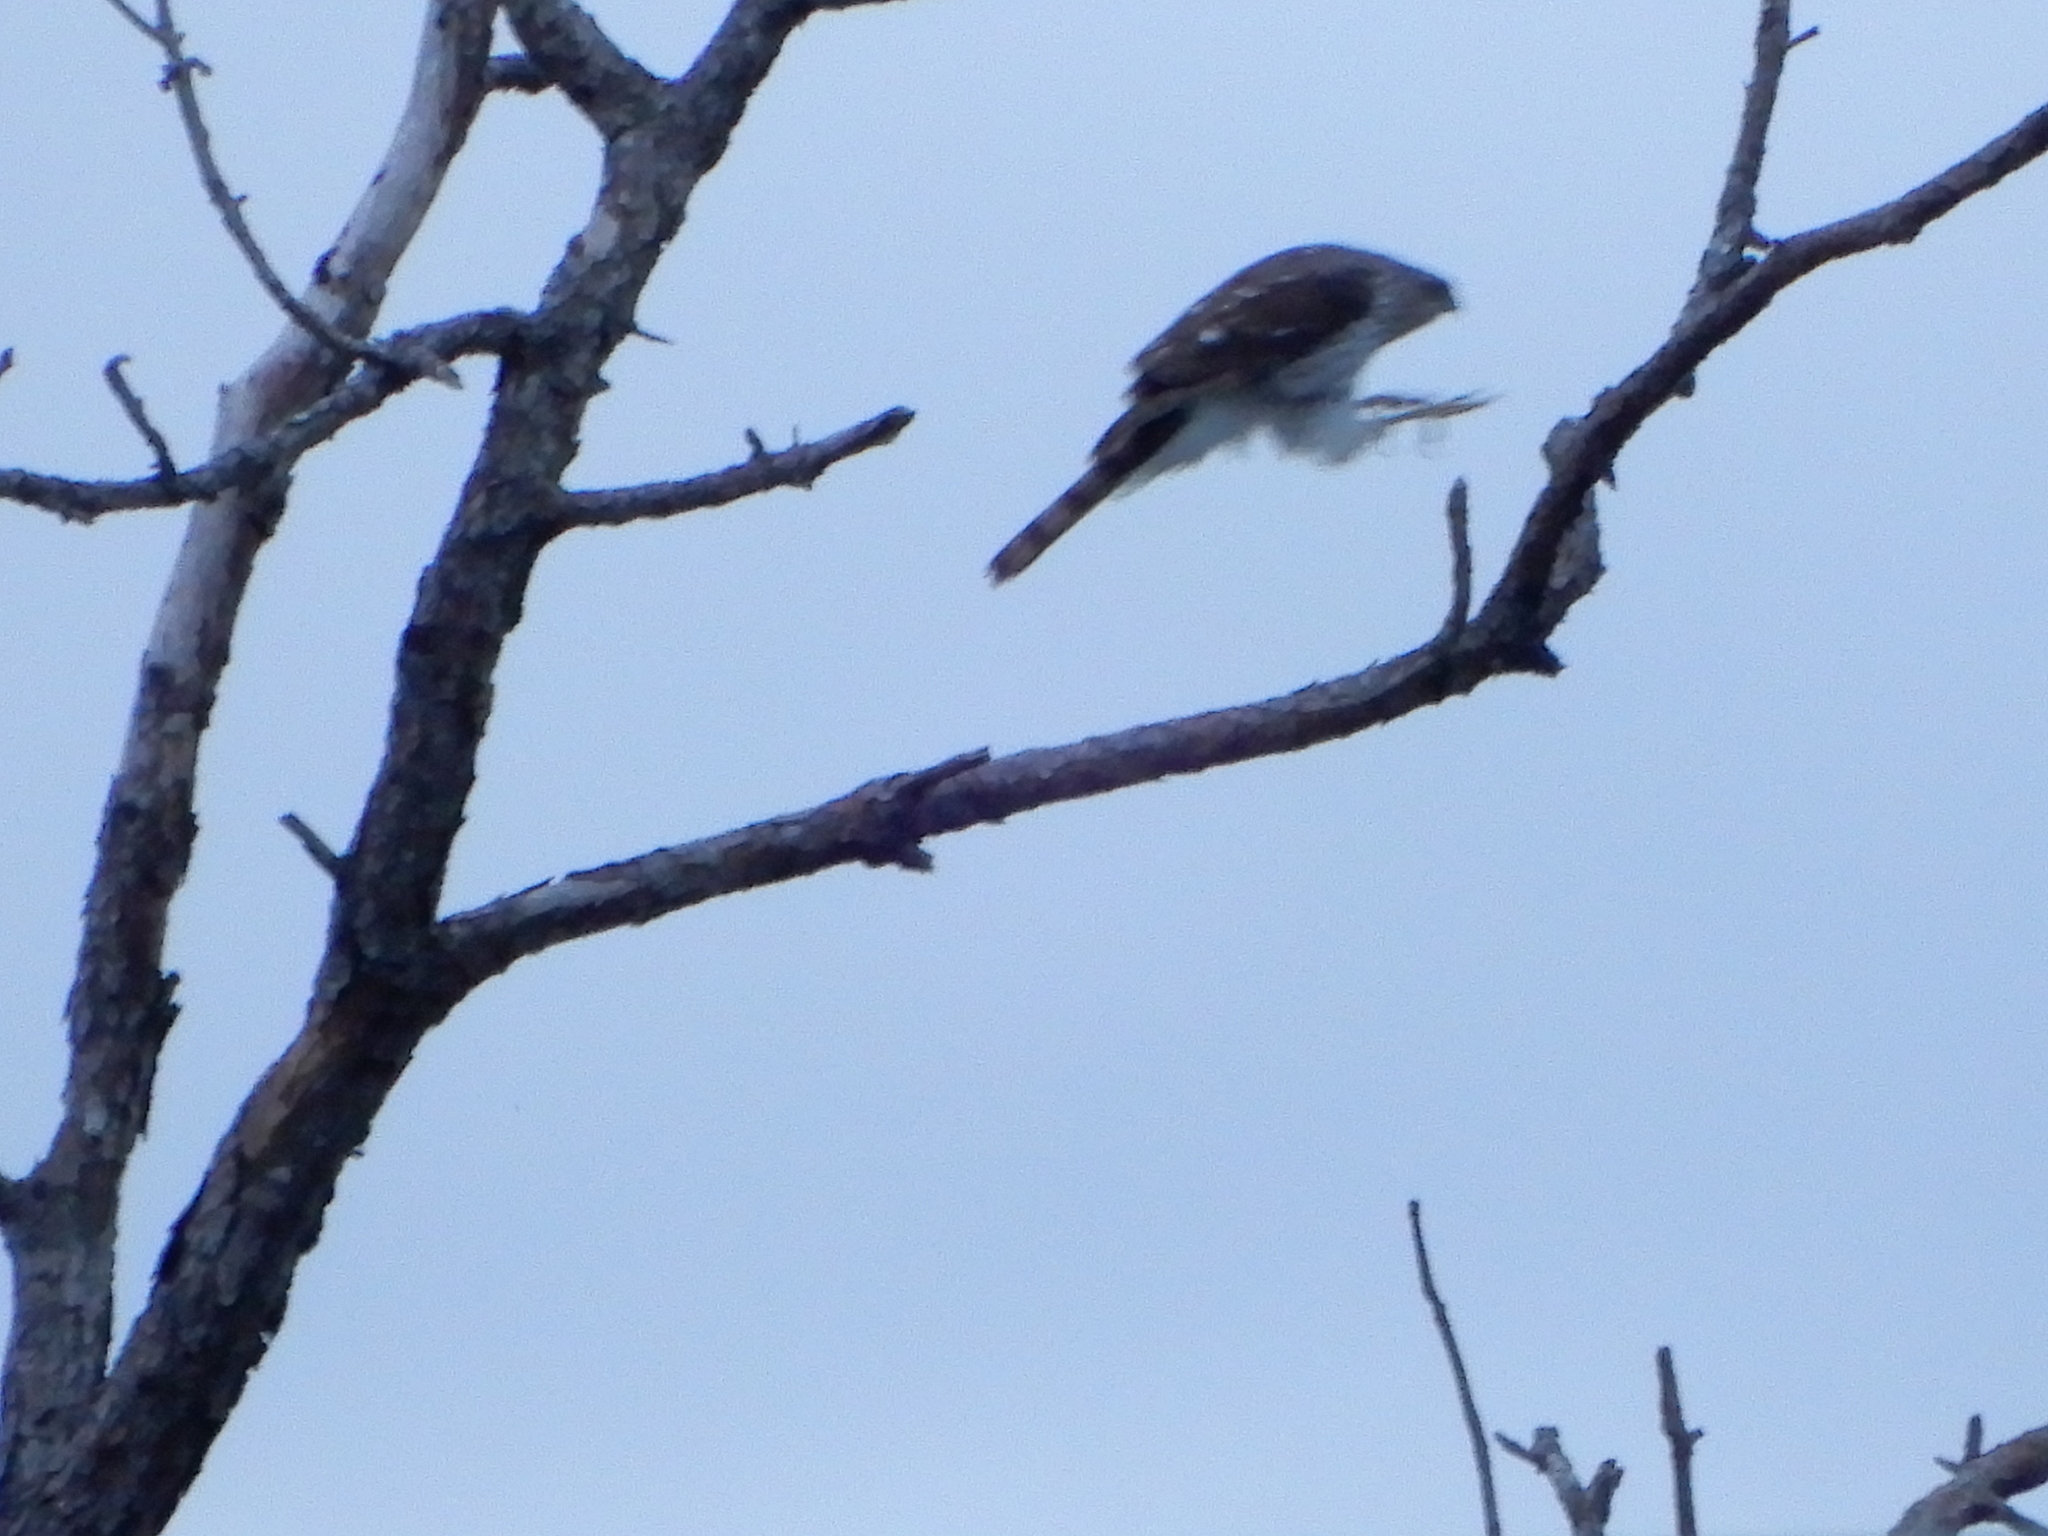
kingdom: Animalia
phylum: Chordata
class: Aves
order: Accipitriformes
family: Accipitridae
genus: Accipiter
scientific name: Accipiter cooperii
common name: Cooper's hawk
